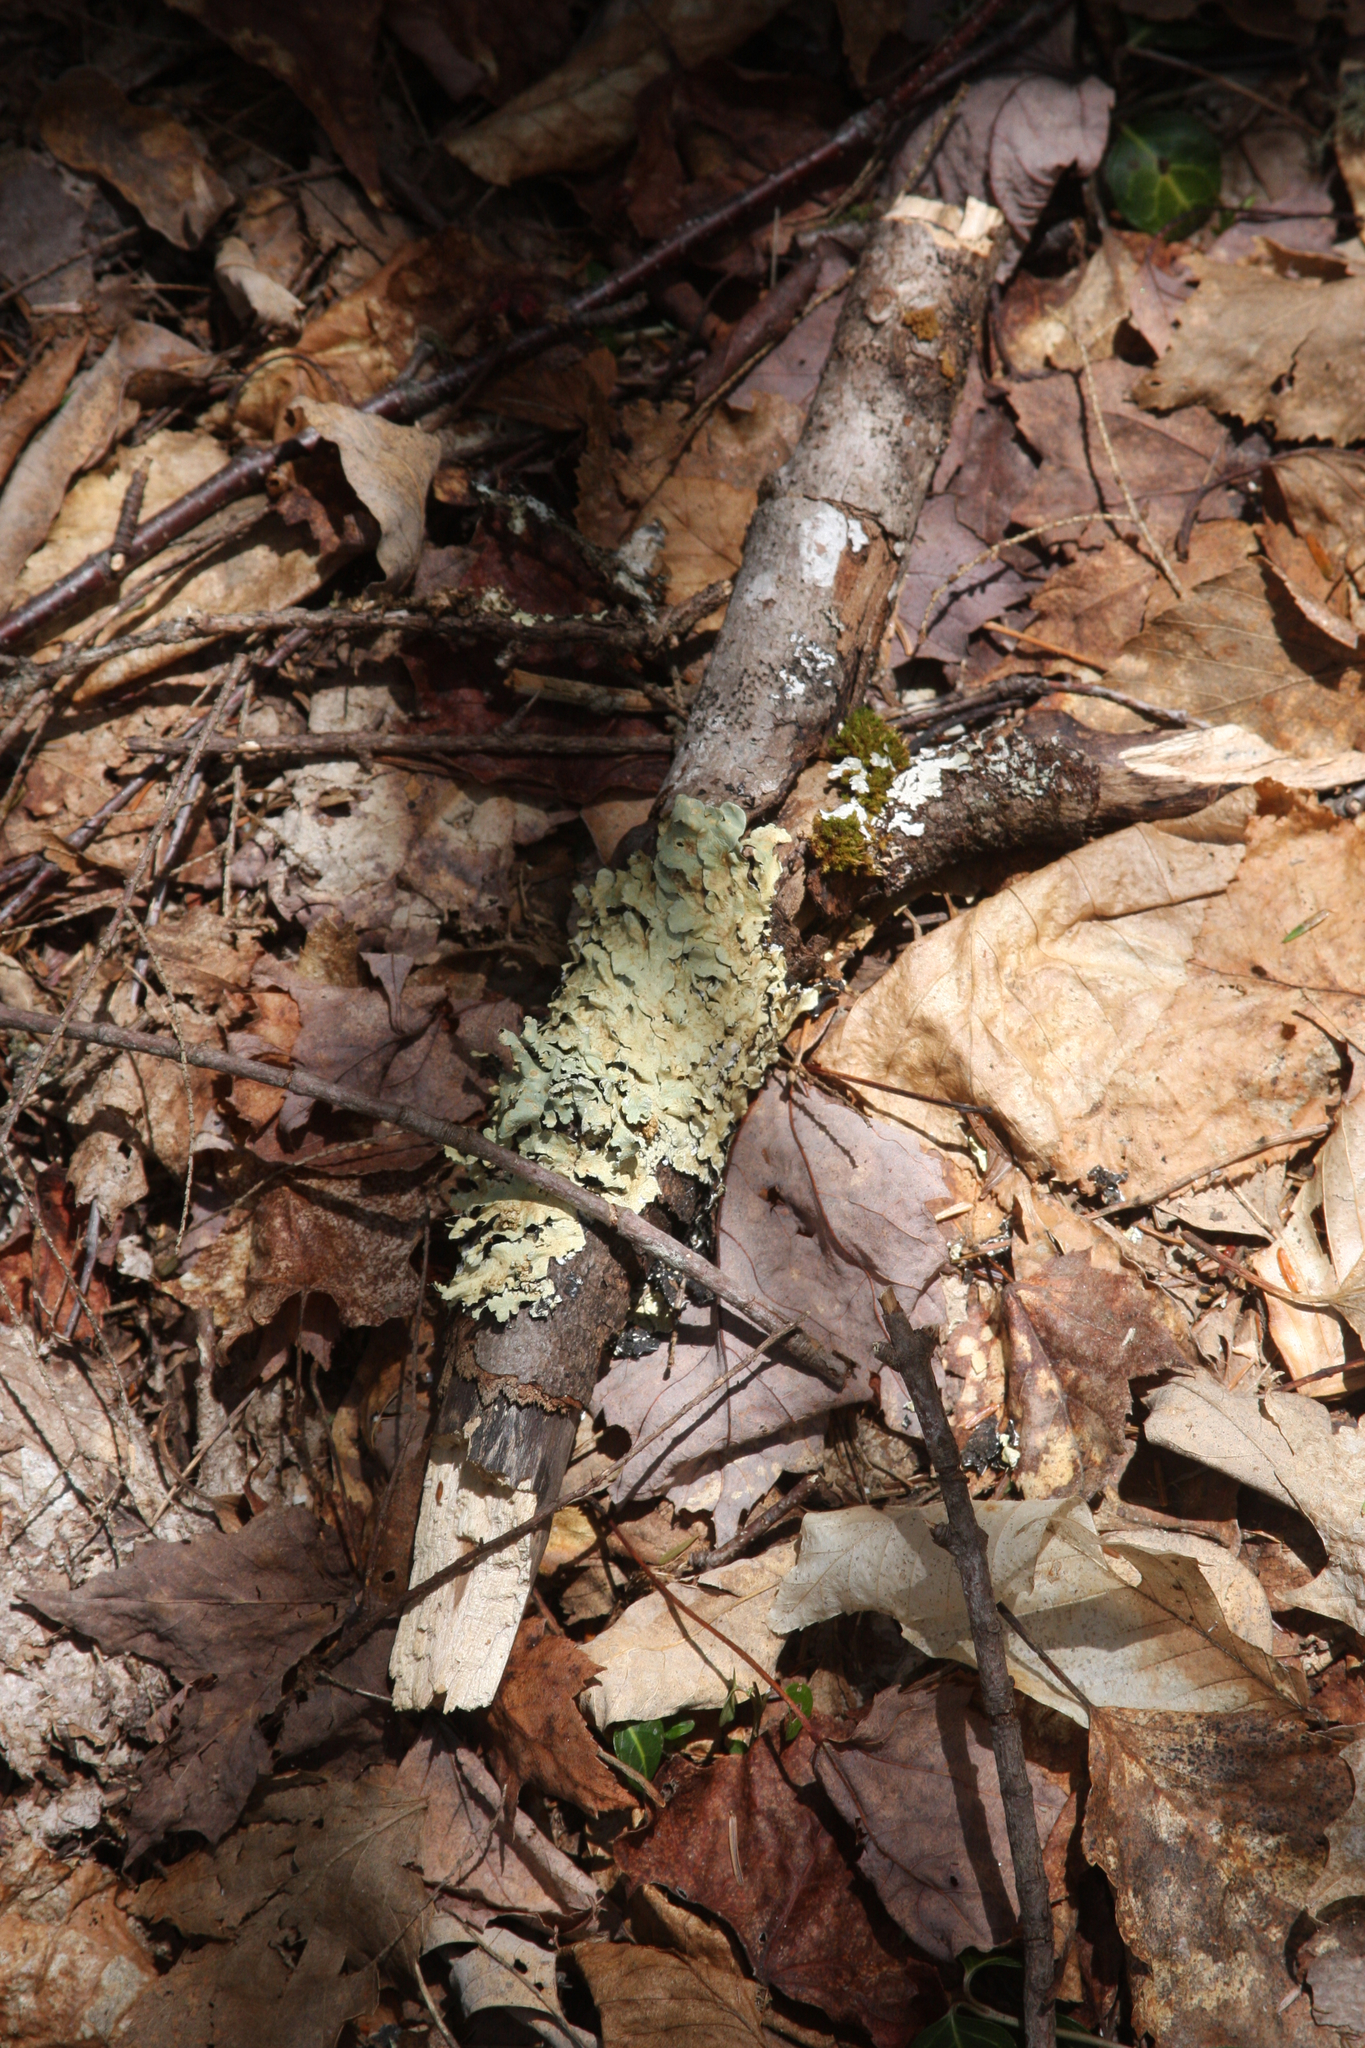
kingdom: Fungi
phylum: Ascomycota
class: Lecanoromycetes
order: Lecanorales
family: Parmeliaceae
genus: Flavoparmelia
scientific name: Flavoparmelia caperata
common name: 40-mile per hour lichen
